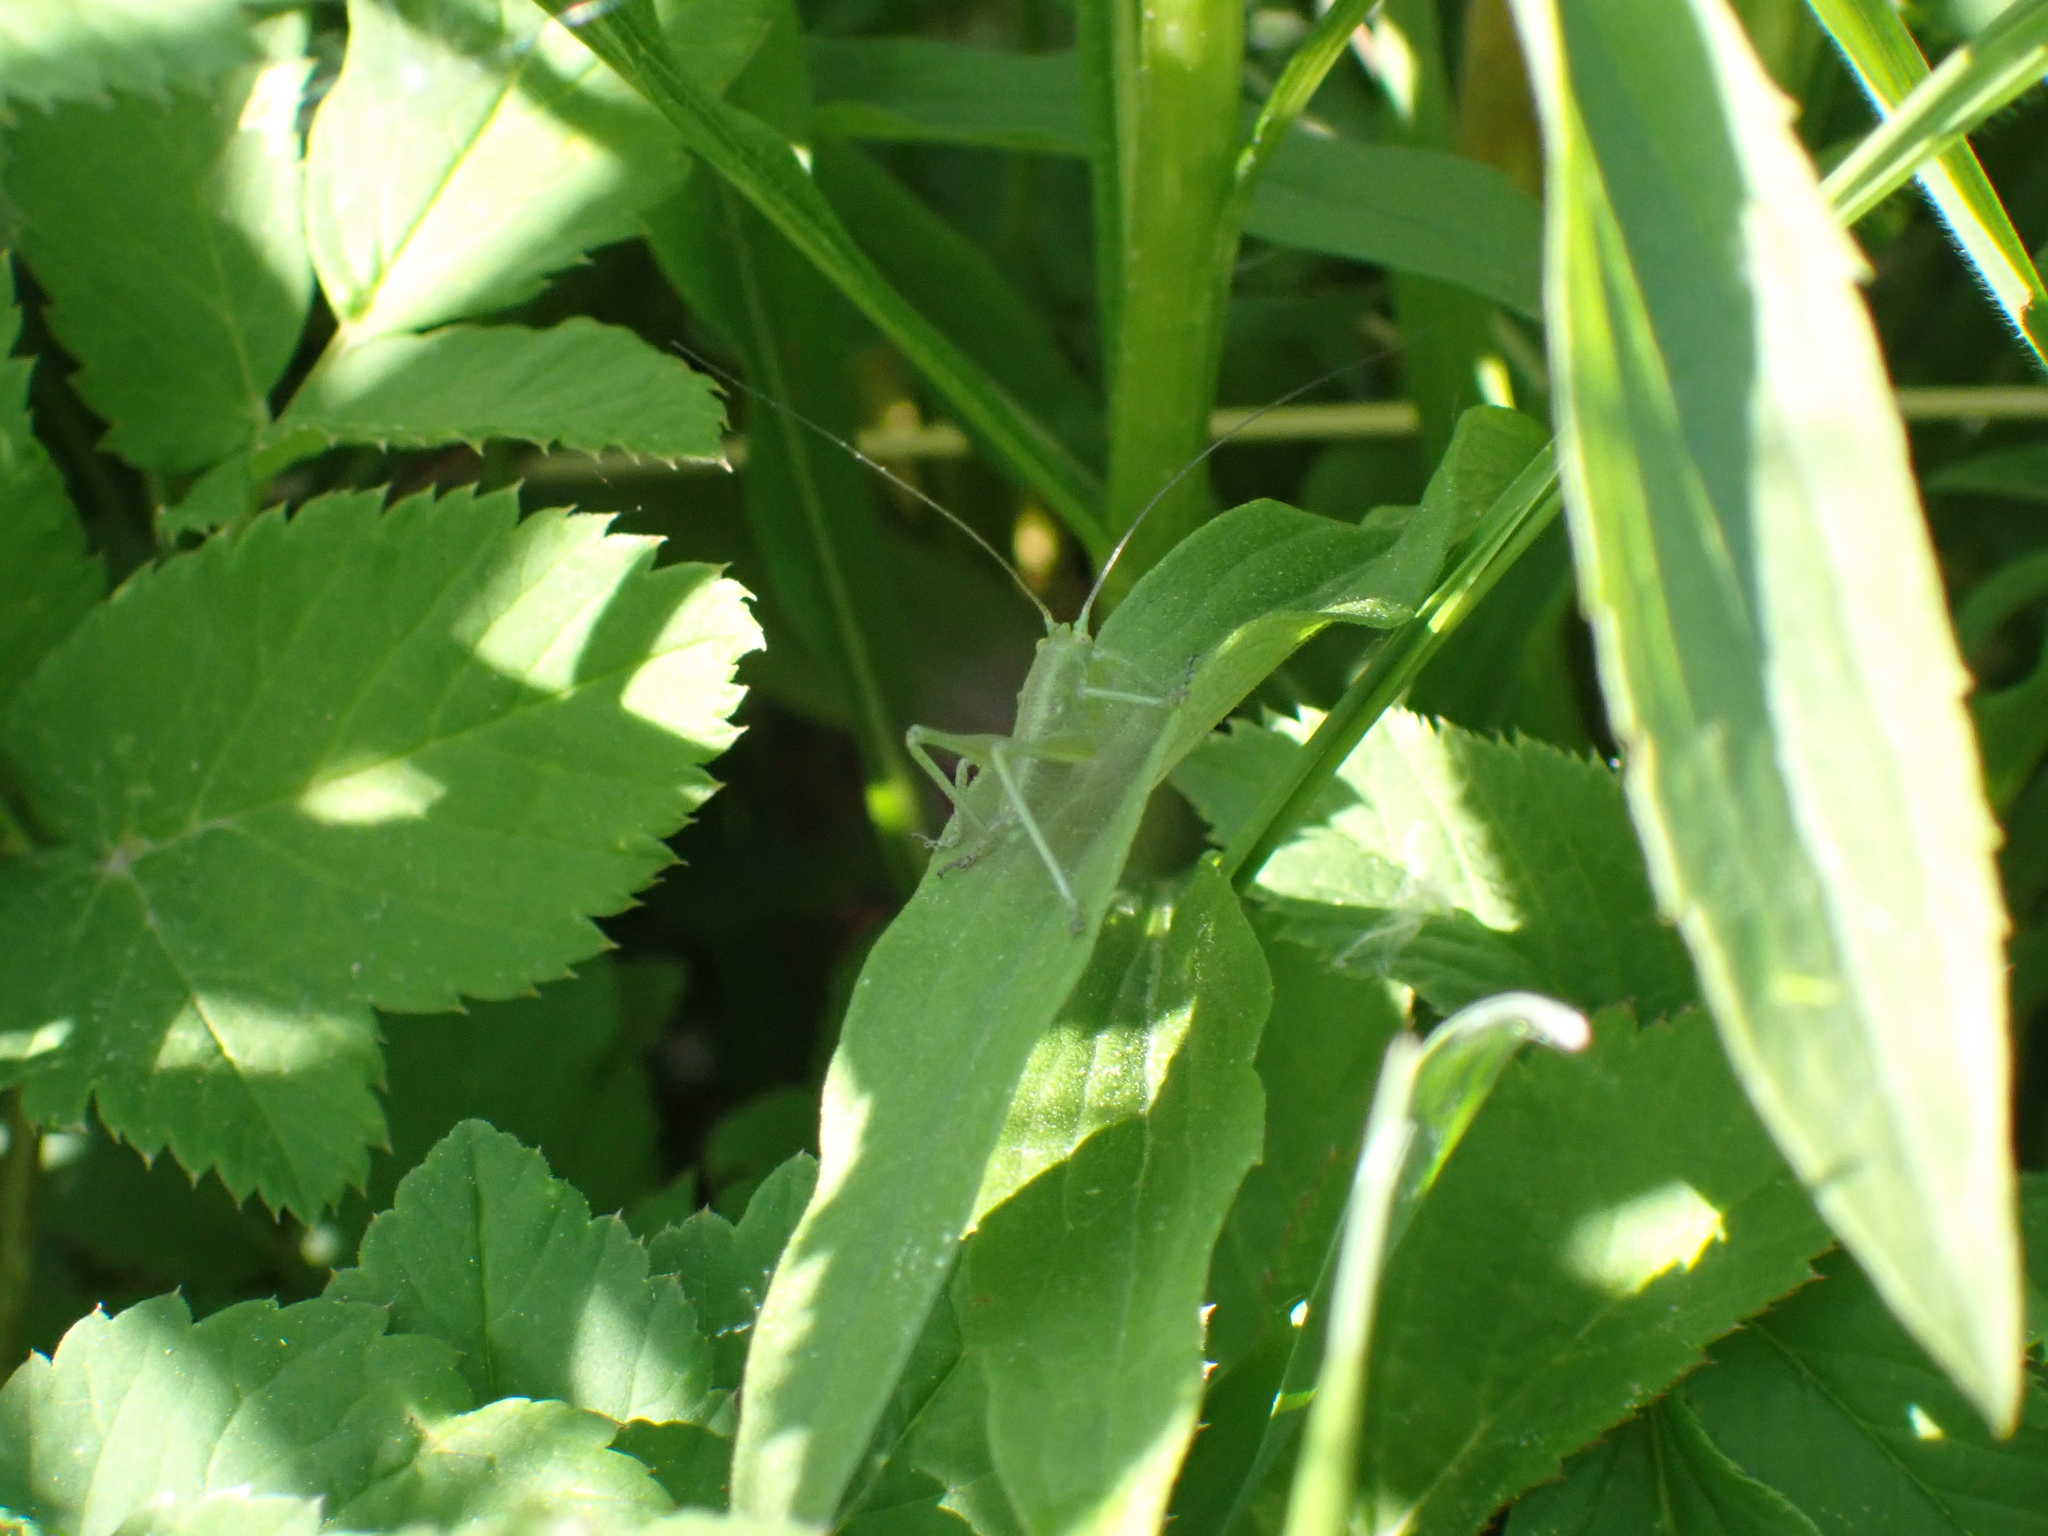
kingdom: Animalia
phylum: Arthropoda
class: Insecta
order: Orthoptera
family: Tettigoniidae
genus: Tettigonia
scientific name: Tettigonia cantans
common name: Upland green bush-cricket
